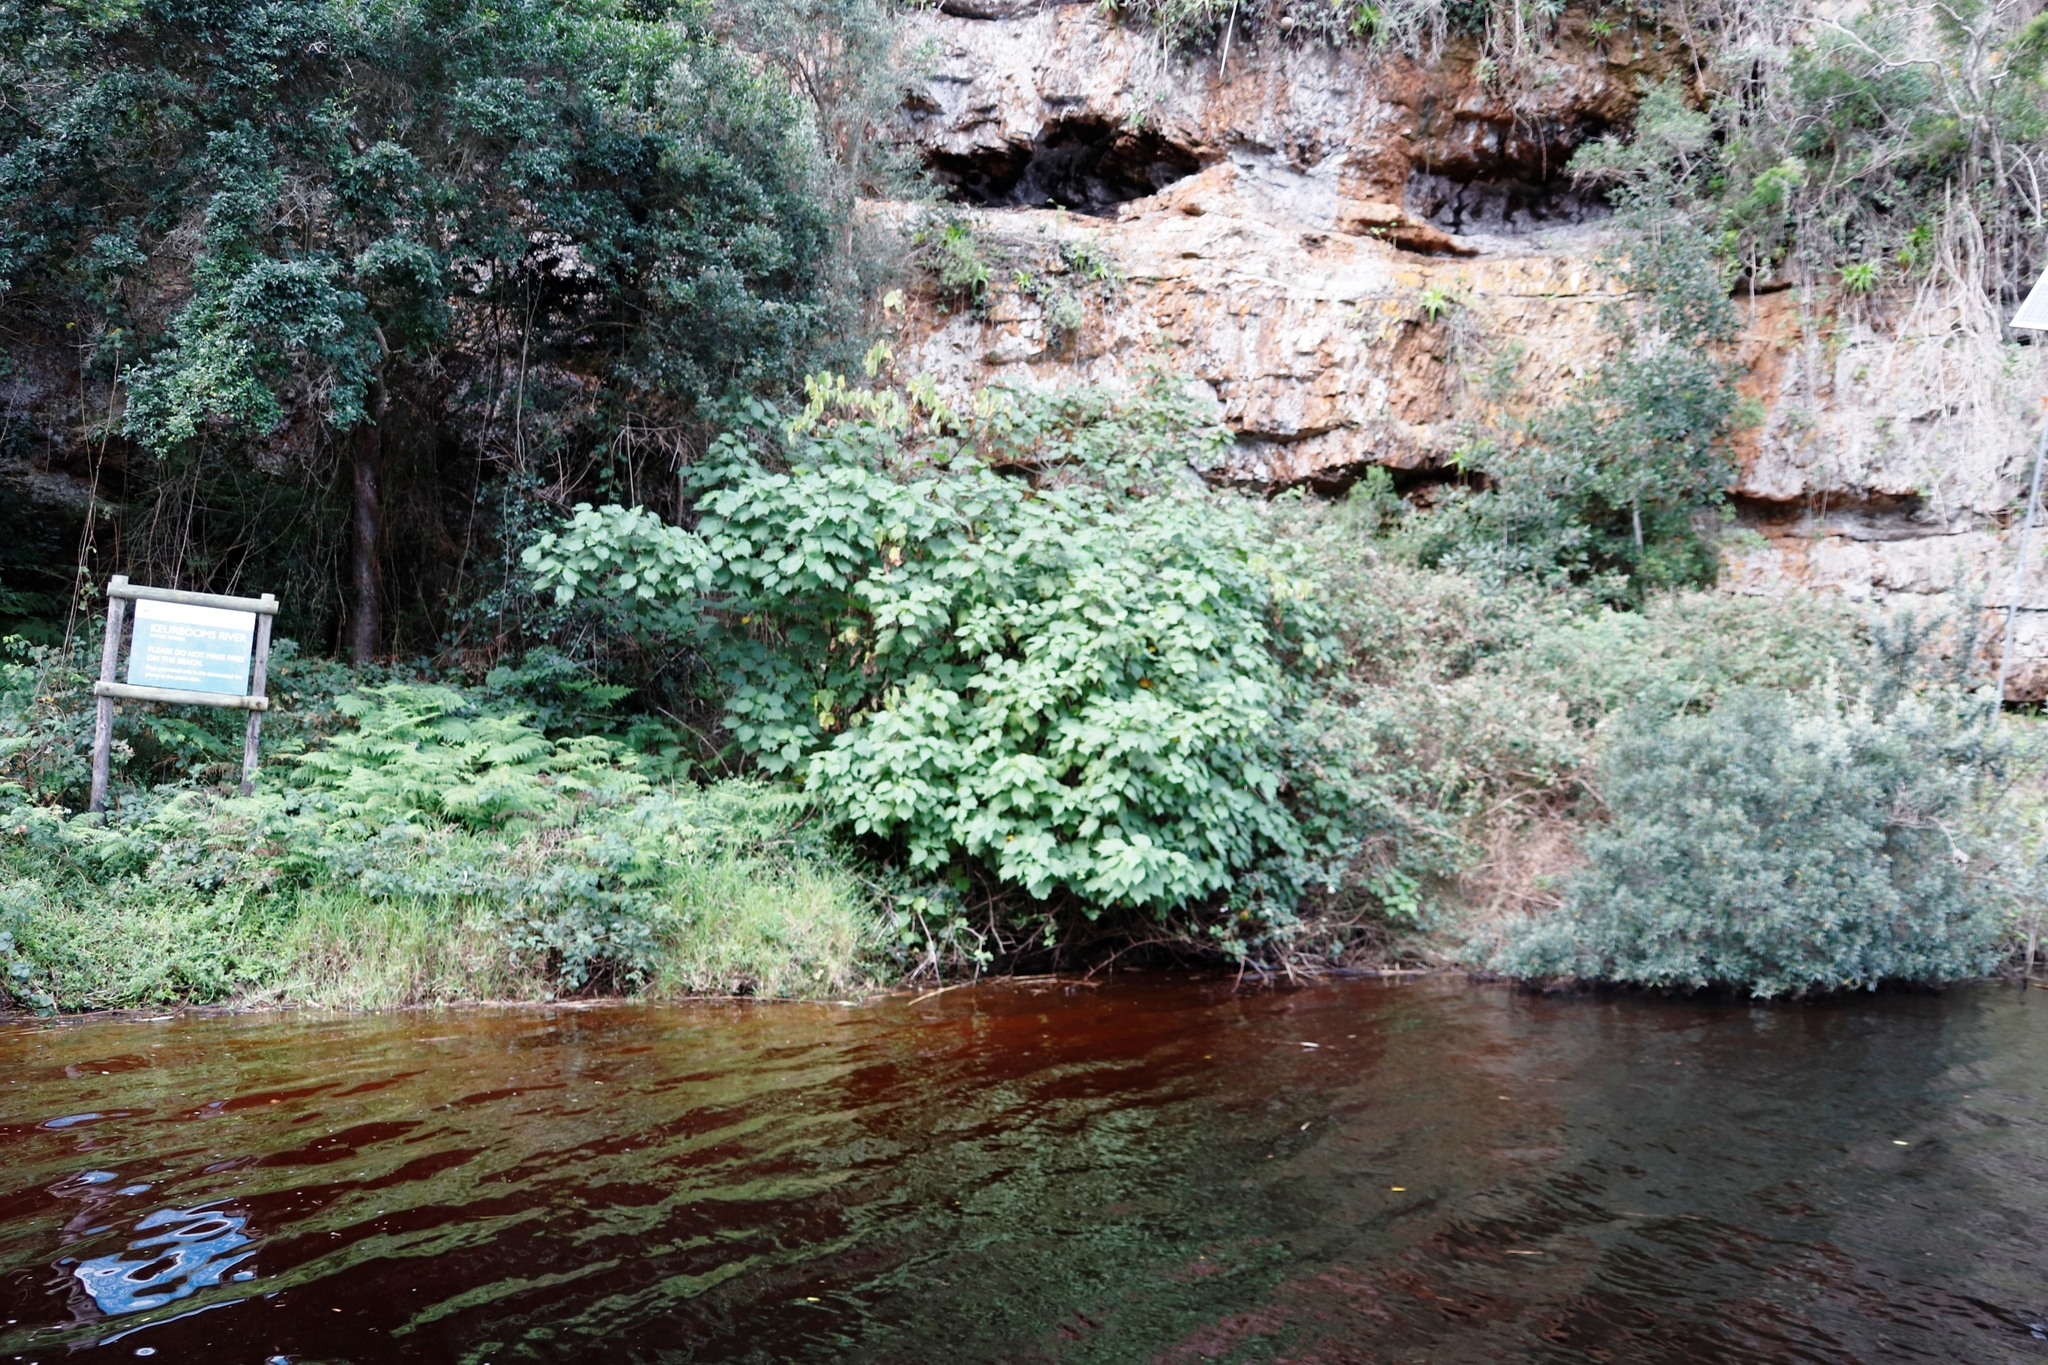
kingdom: Plantae
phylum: Tracheophyta
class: Magnoliopsida
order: Malvales
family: Malvaceae
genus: Sparrmannia
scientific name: Sparrmannia africana
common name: African-hemp
